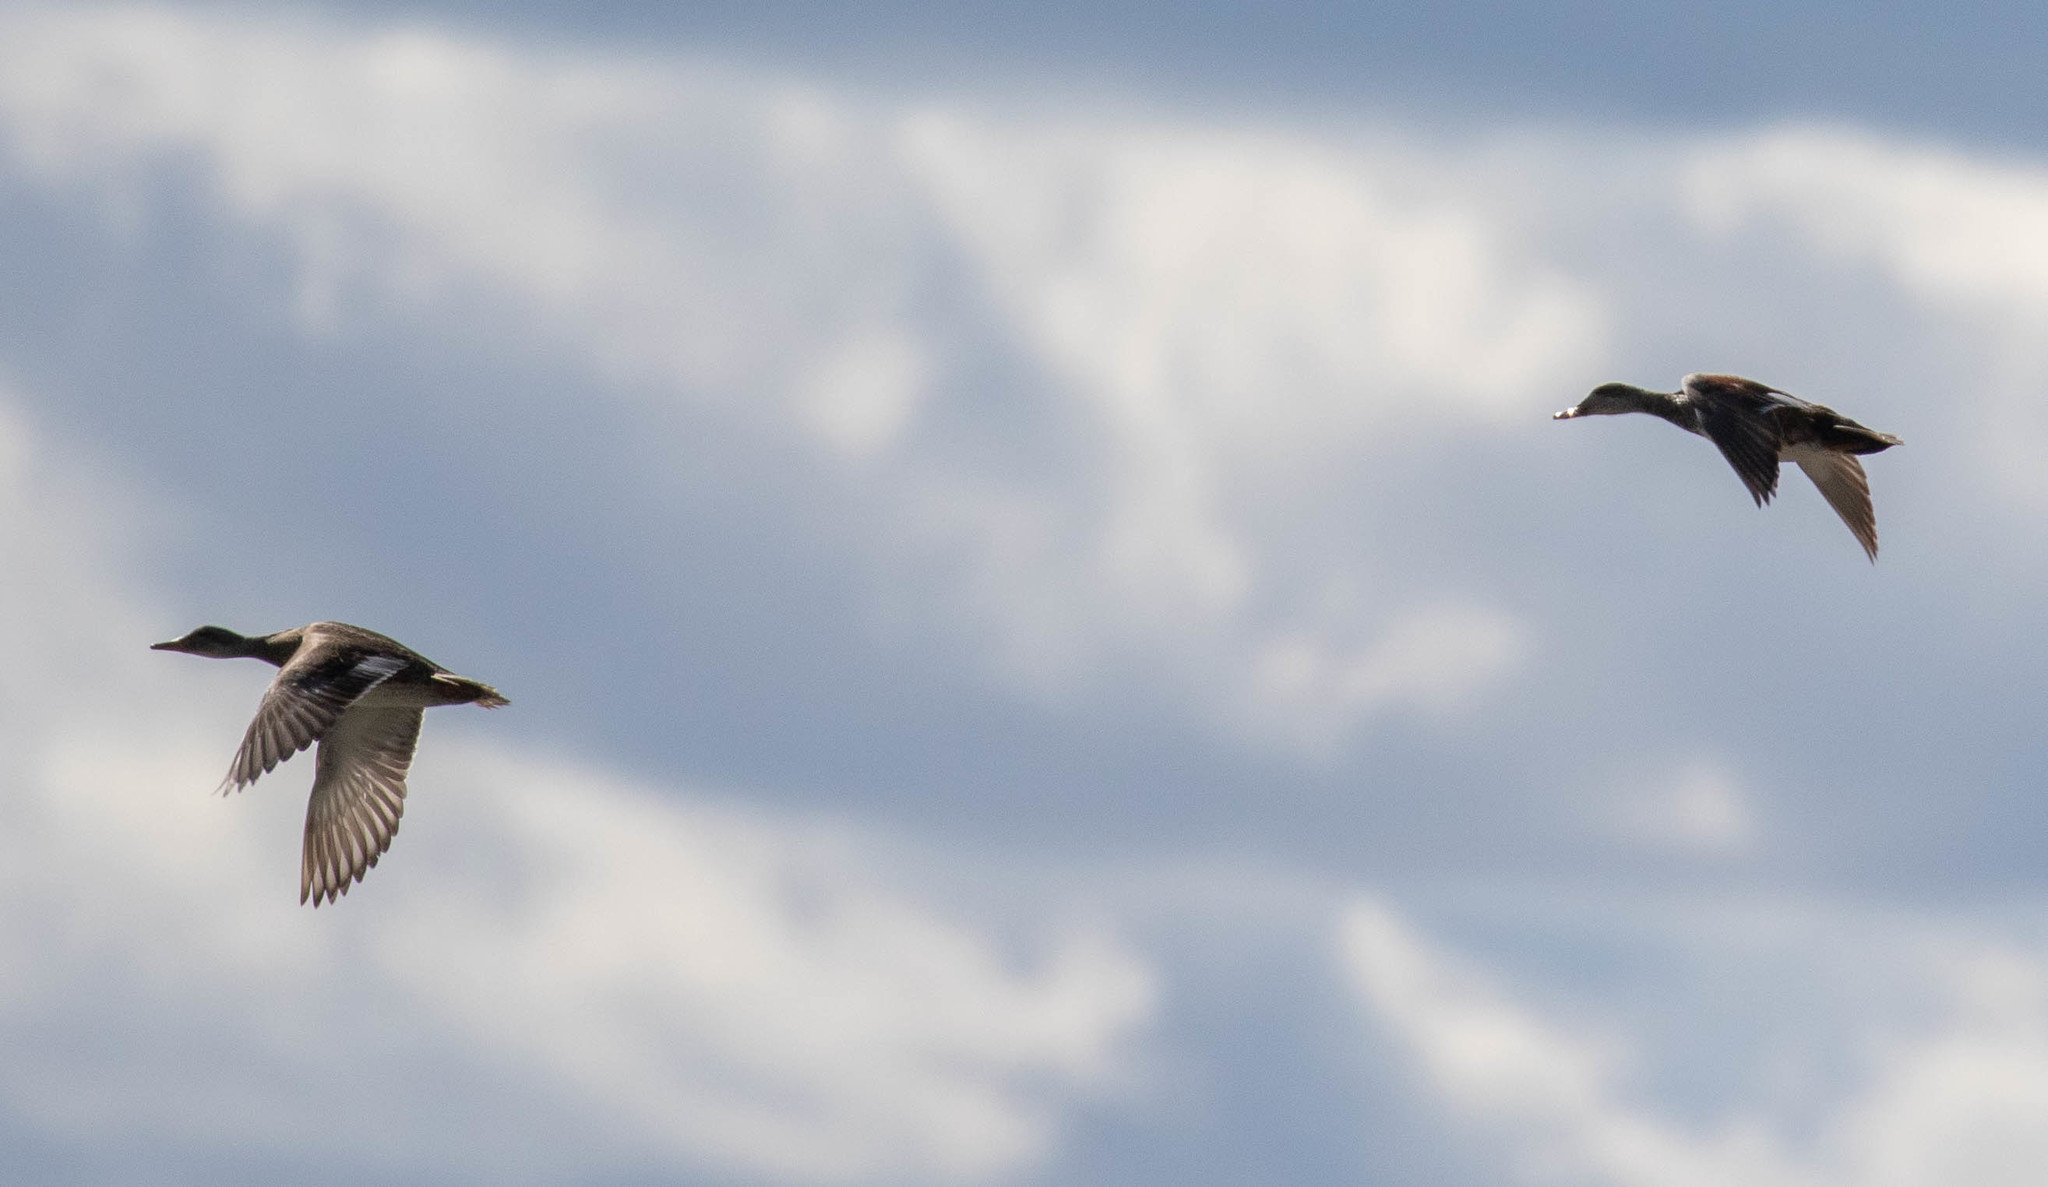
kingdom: Animalia
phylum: Chordata
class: Aves
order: Anseriformes
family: Anatidae
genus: Mareca
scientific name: Mareca strepera
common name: Gadwall
